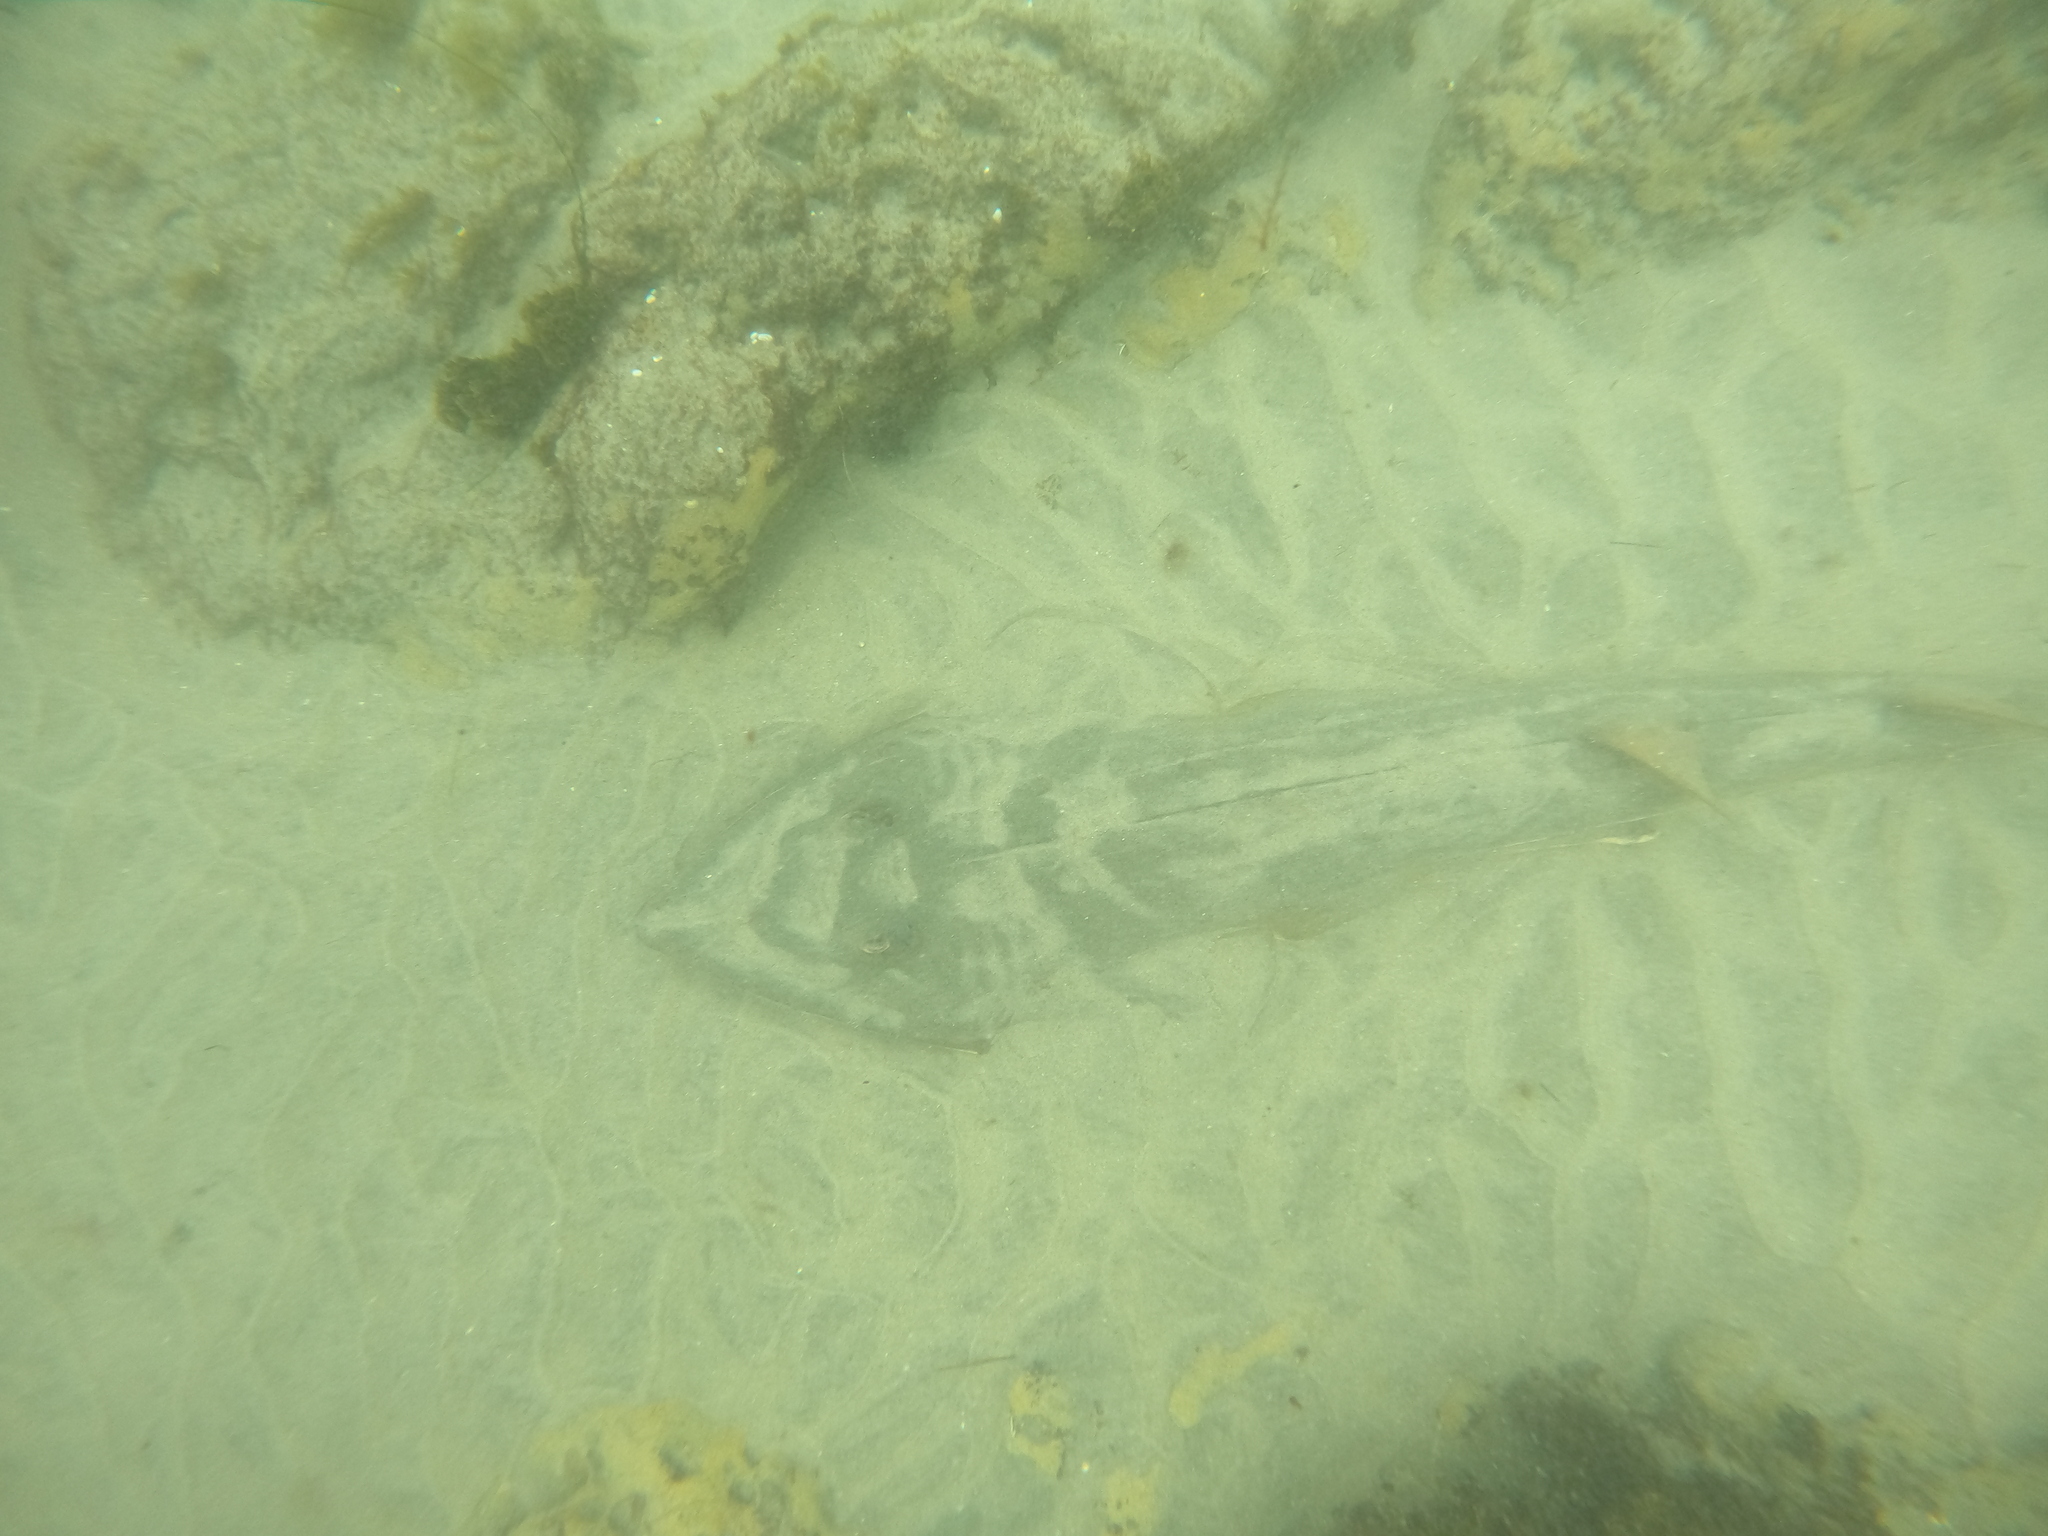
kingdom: Animalia
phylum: Chordata
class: Elasmobranchii
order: Rhinopristiformes
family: Rhinobatidae
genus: Pseudobatos
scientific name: Pseudobatos productus
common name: Shovelnose guitarfish
